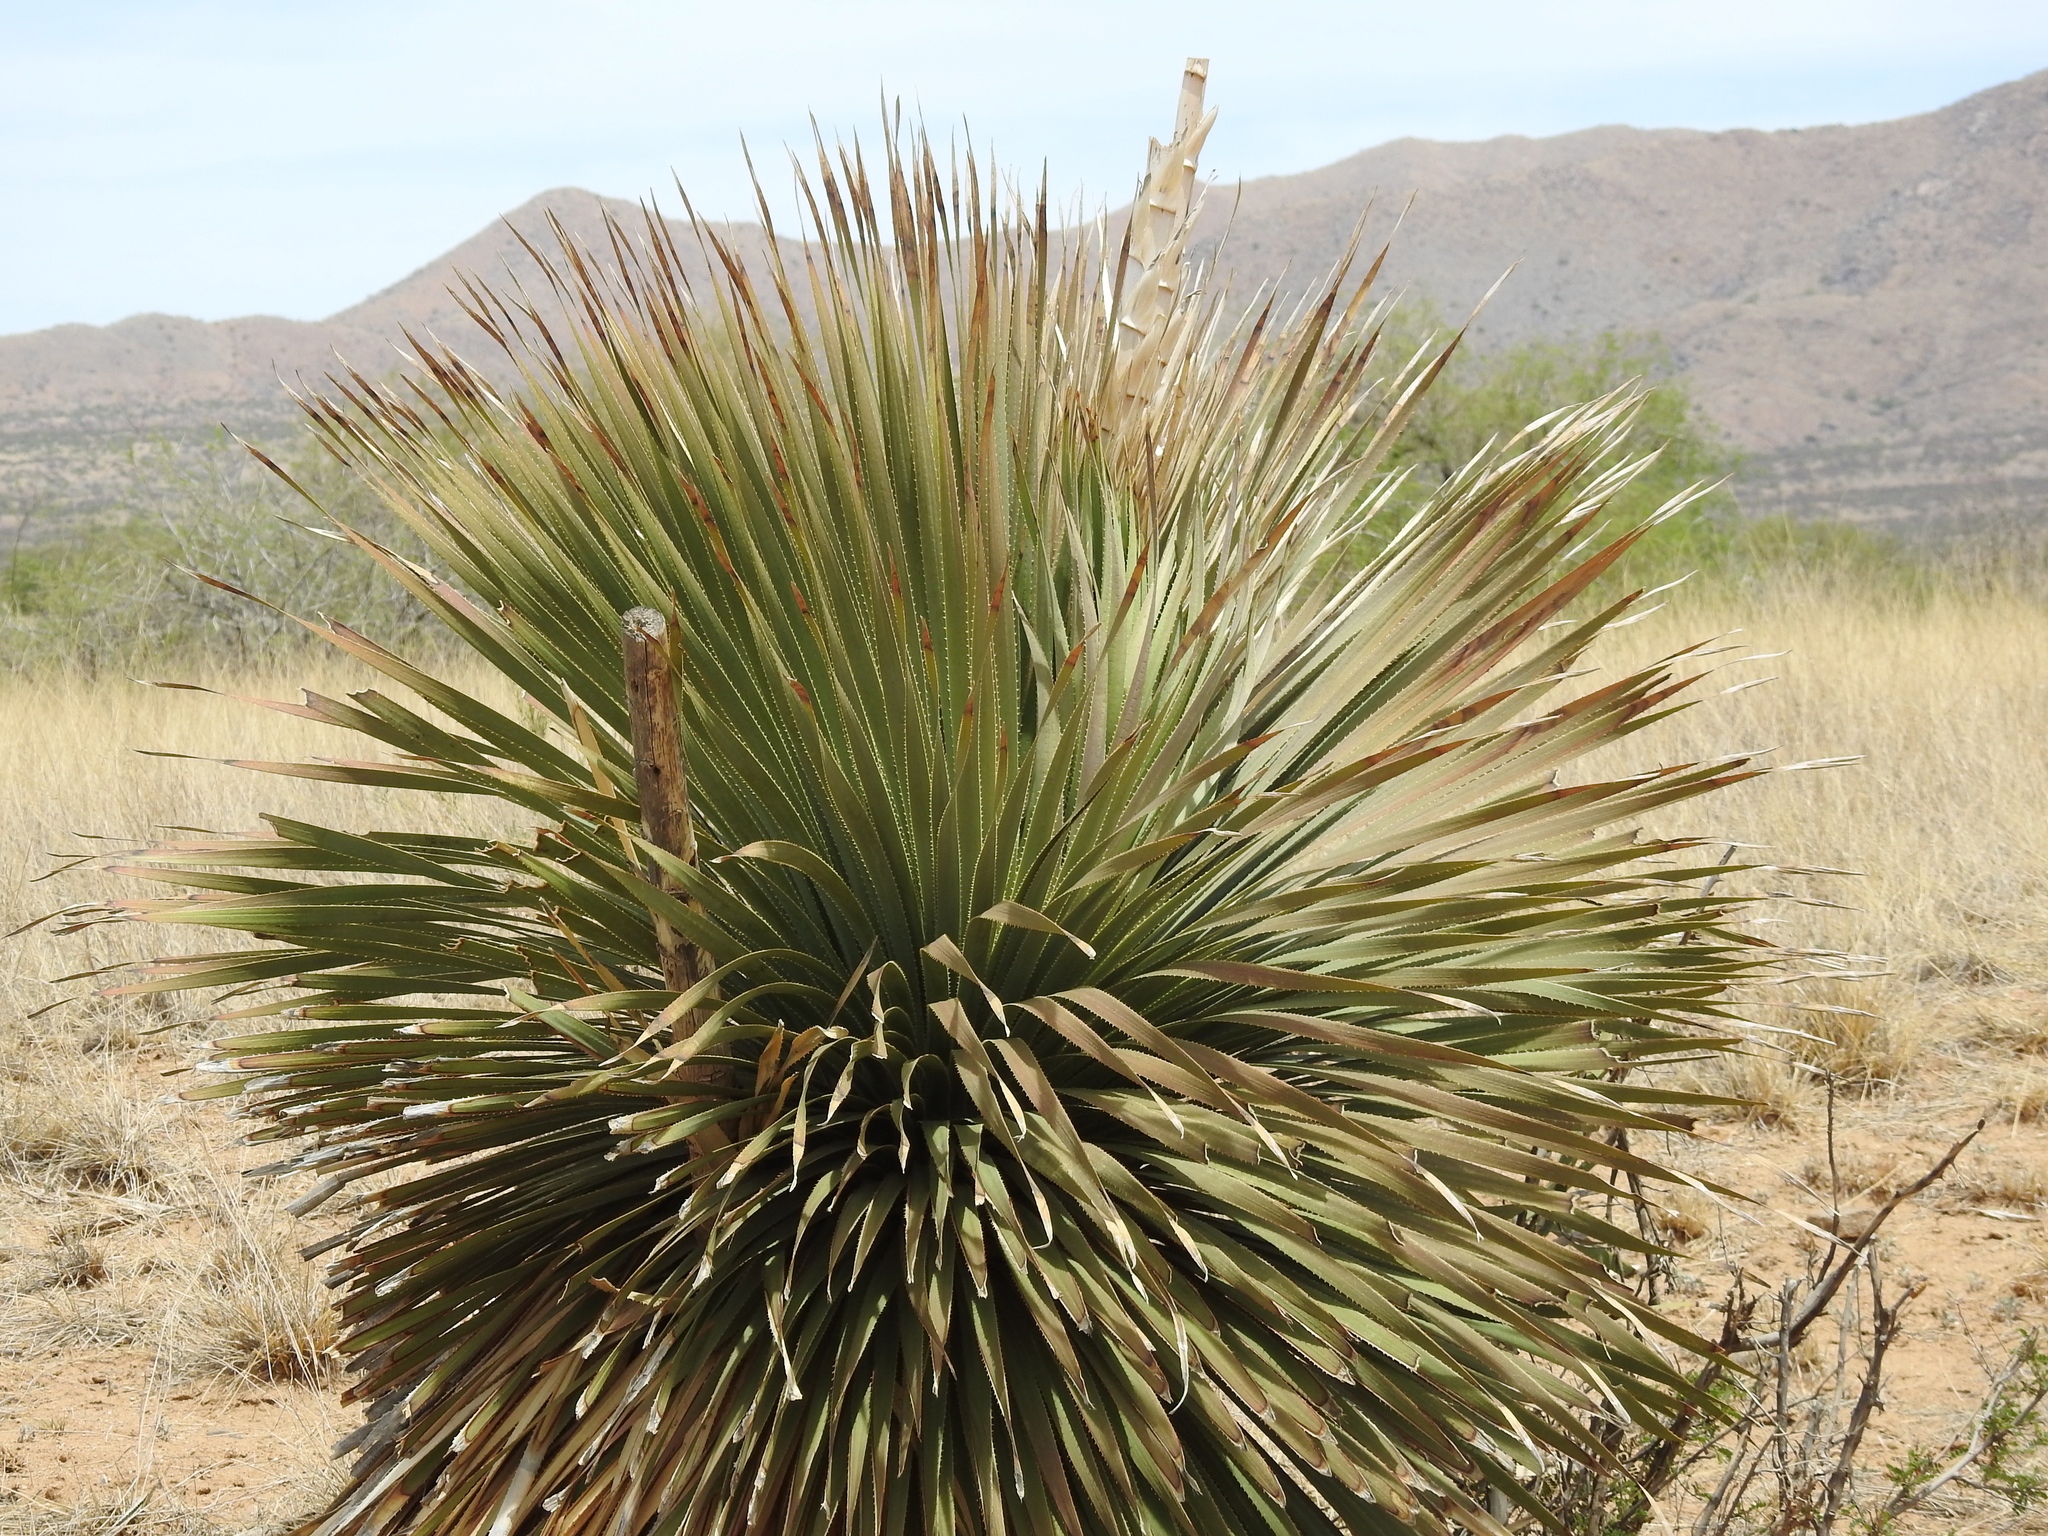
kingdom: Plantae
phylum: Tracheophyta
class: Liliopsida
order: Asparagales
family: Asparagaceae
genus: Dasylirion
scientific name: Dasylirion wheeleri
